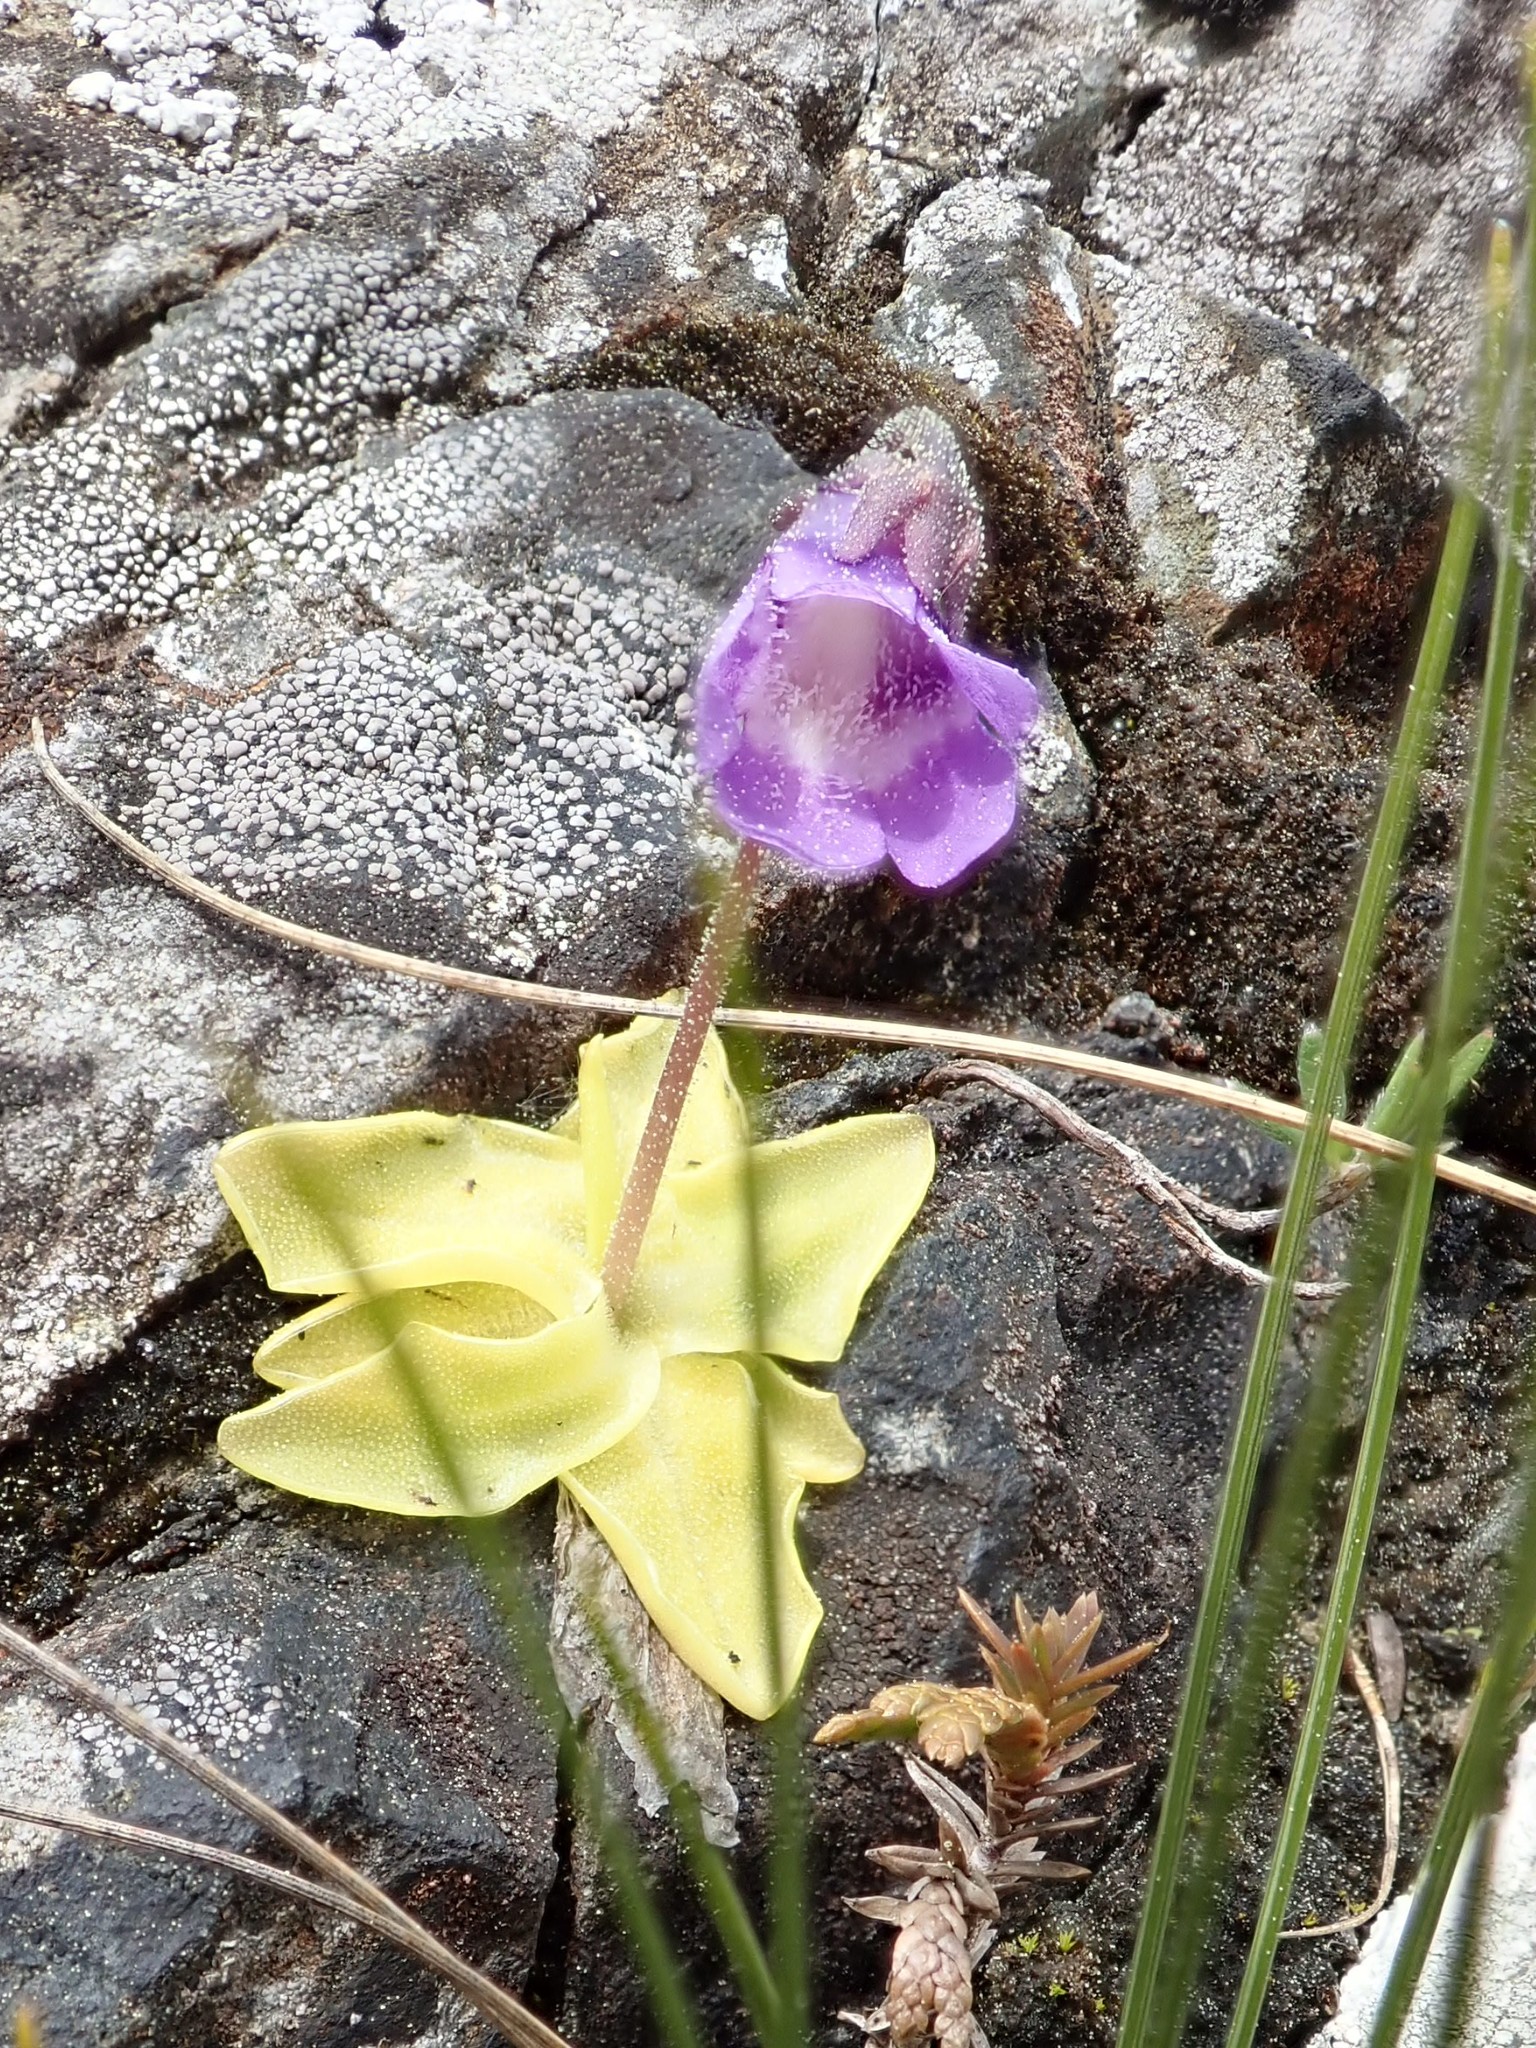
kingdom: Plantae
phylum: Tracheophyta
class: Magnoliopsida
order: Lamiales
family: Lentibulariaceae
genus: Pinguicula
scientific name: Pinguicula vulgaris
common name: Common butterwort
